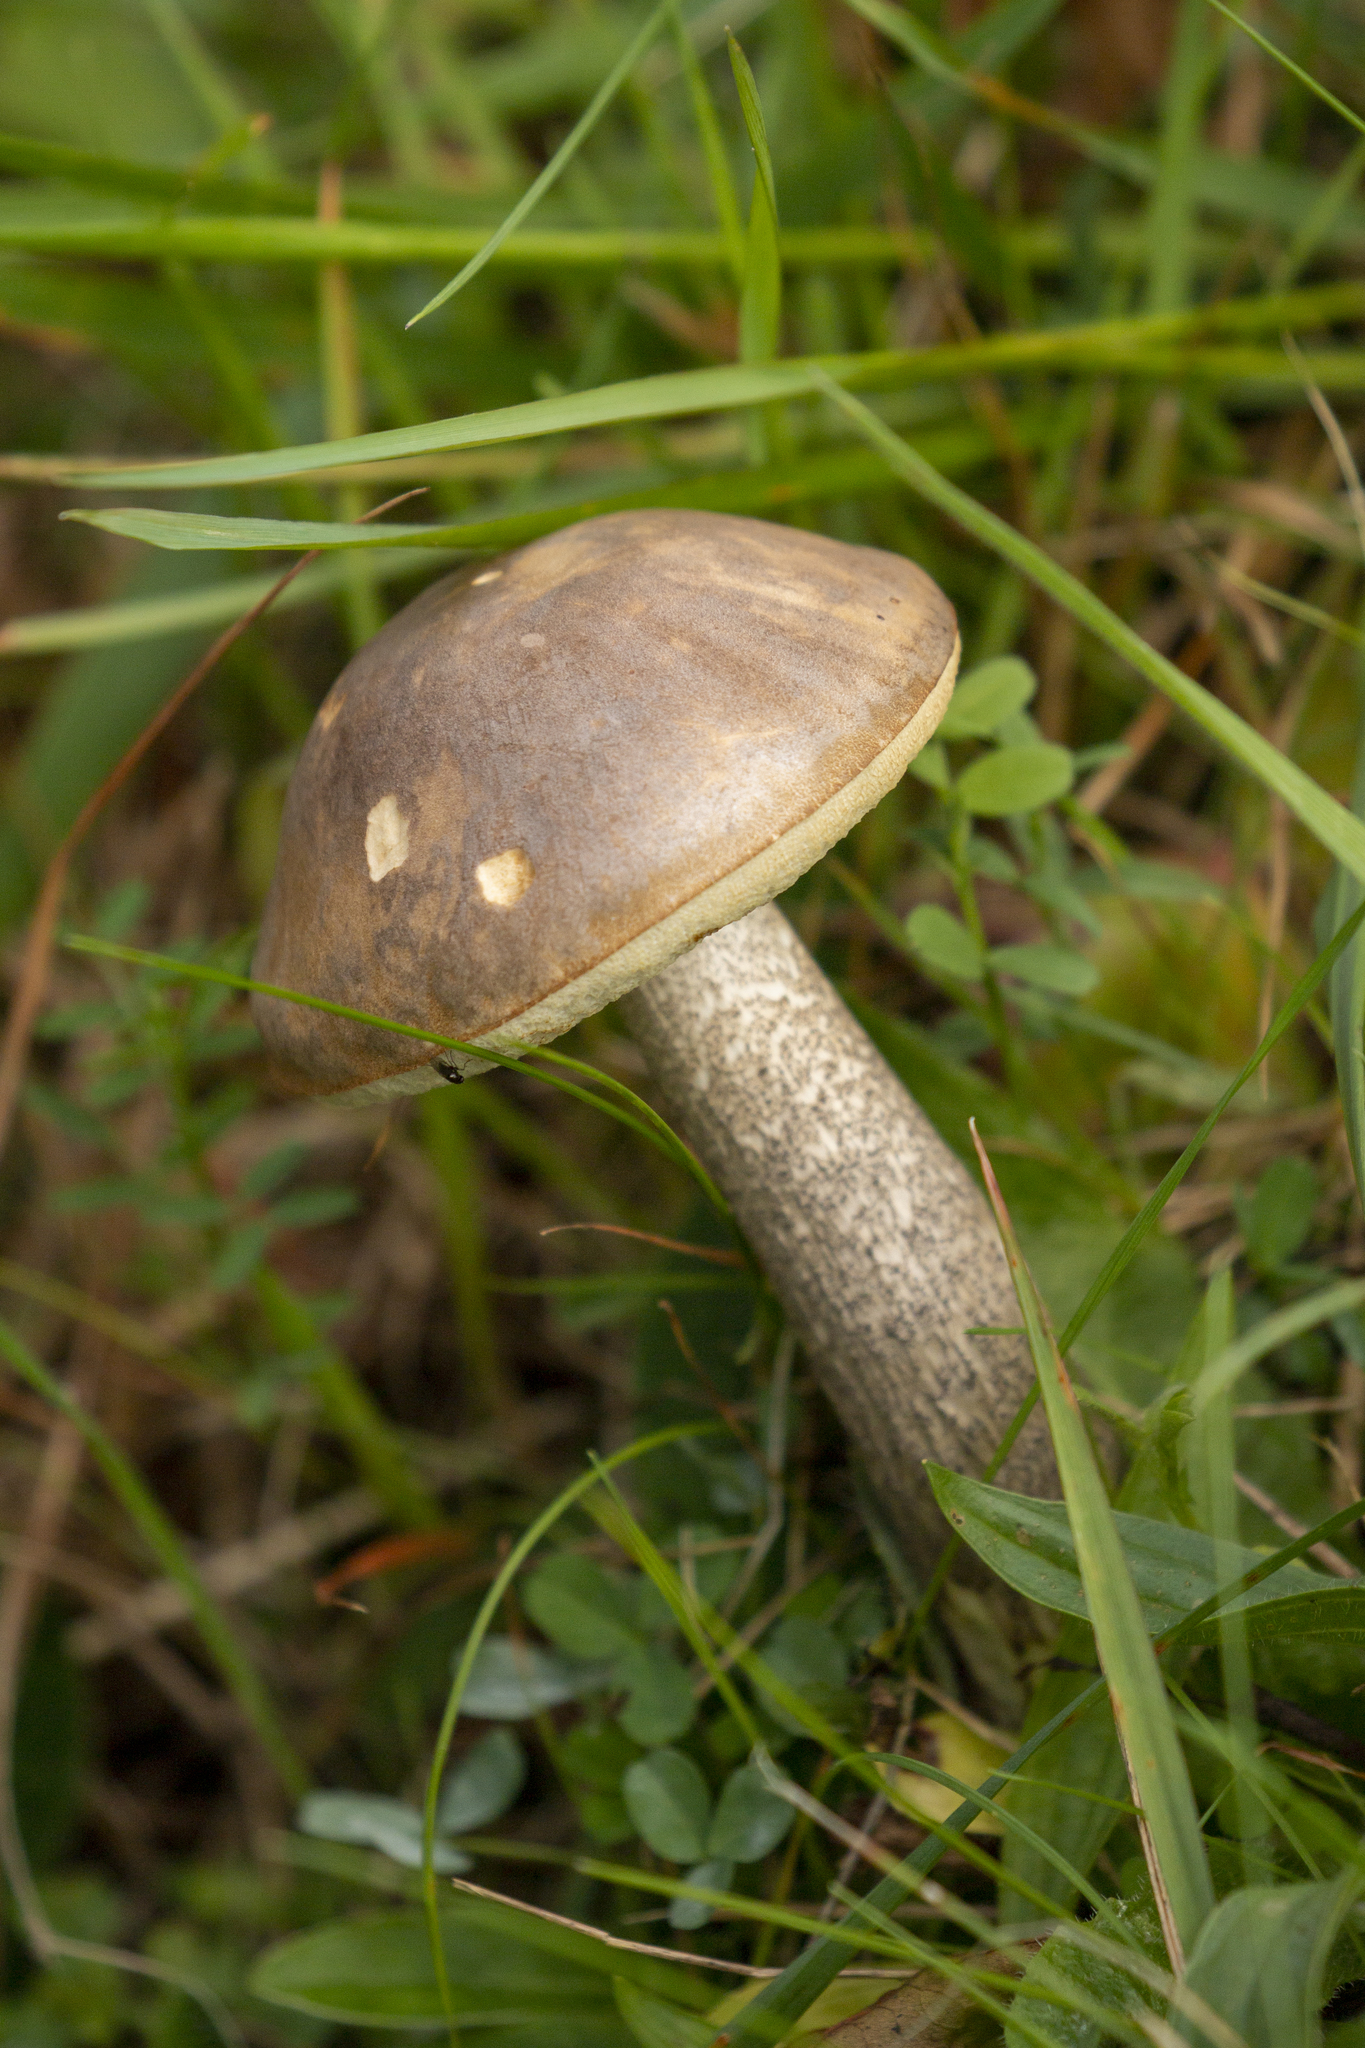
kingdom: Fungi
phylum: Basidiomycota
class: Agaricomycetes
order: Boletales
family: Boletaceae
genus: Leccinum
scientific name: Leccinum scabrum
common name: Blushing bolete
